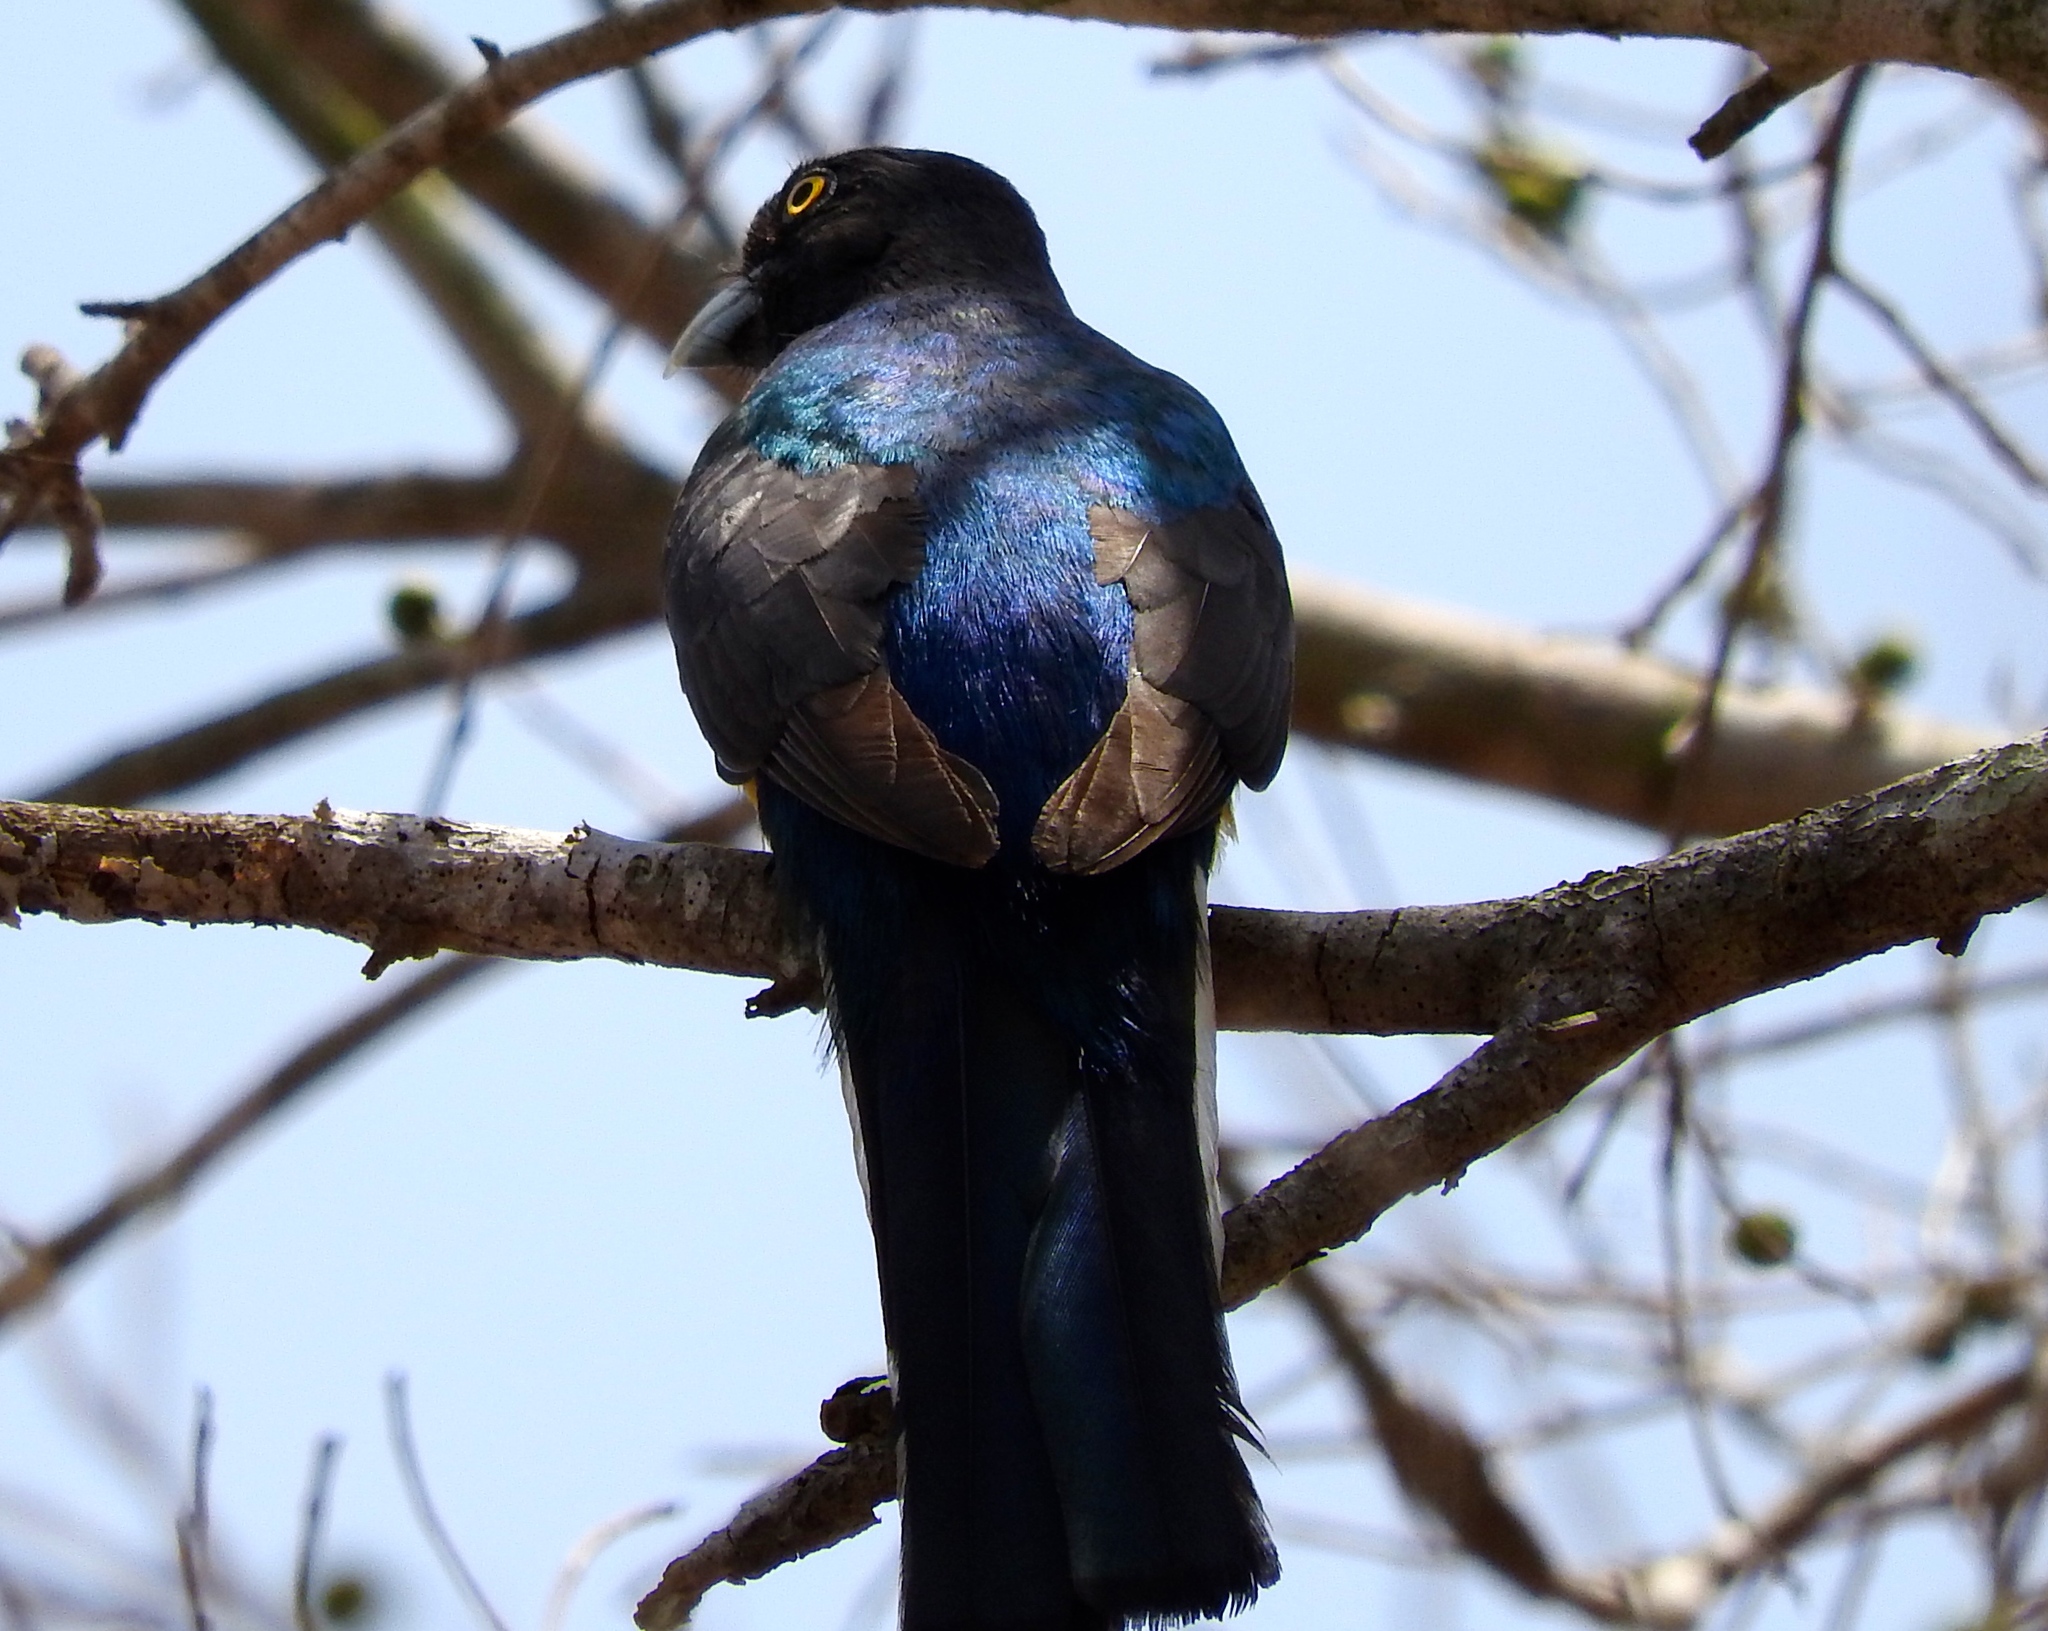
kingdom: Animalia
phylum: Chordata
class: Aves
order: Trogoniformes
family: Trogonidae
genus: Trogon
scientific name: Trogon citreolus
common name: Citreoline trogon
